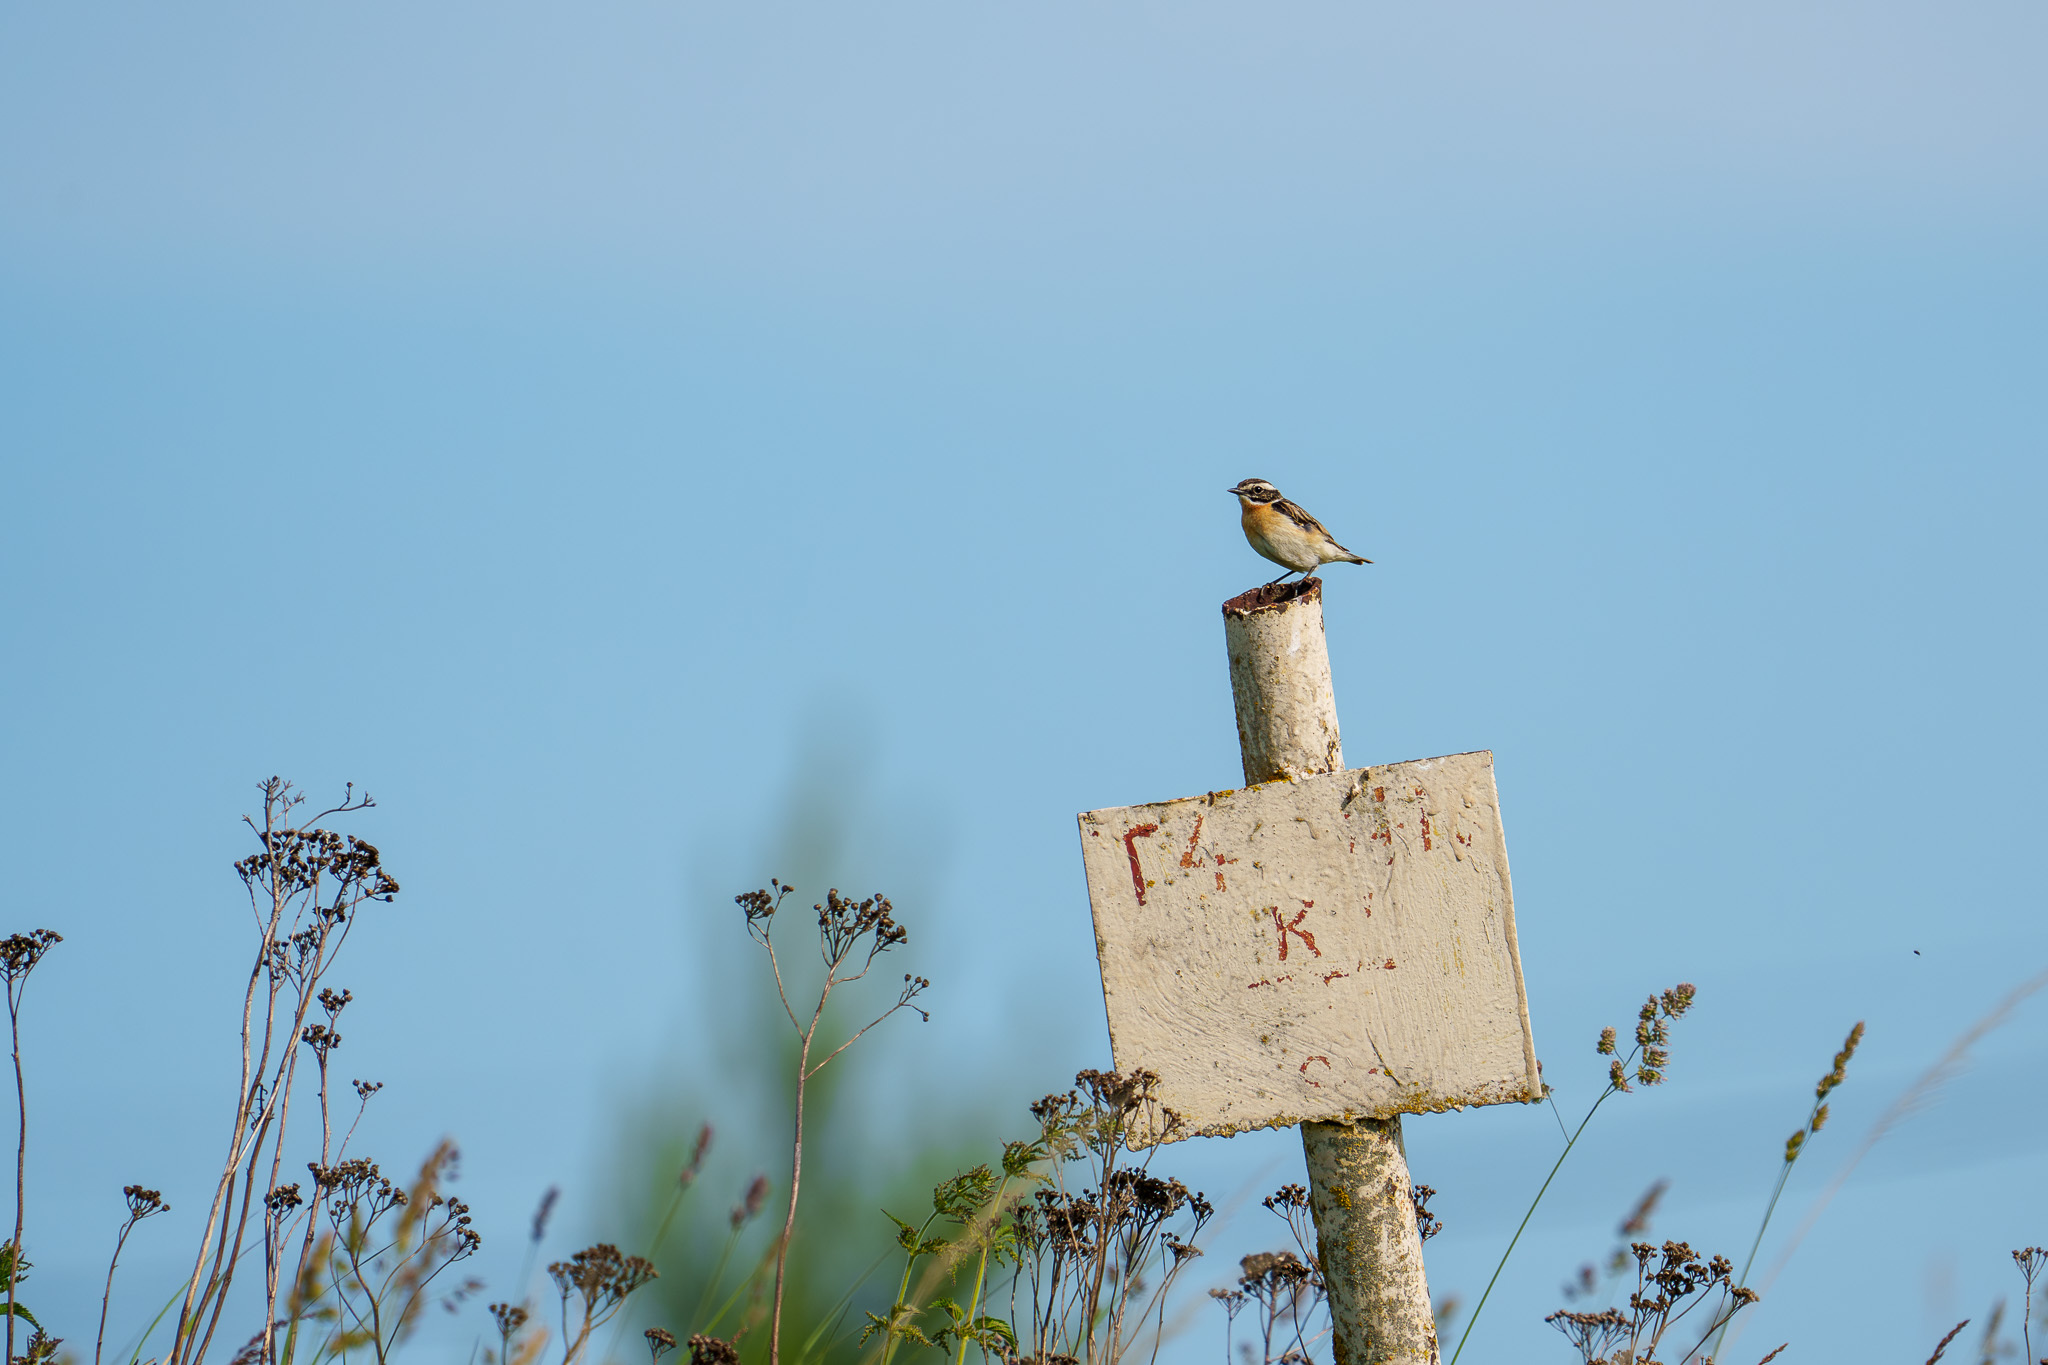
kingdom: Animalia
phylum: Chordata
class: Aves
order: Passeriformes
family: Muscicapidae
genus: Saxicola
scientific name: Saxicola rubetra
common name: Whinchat
